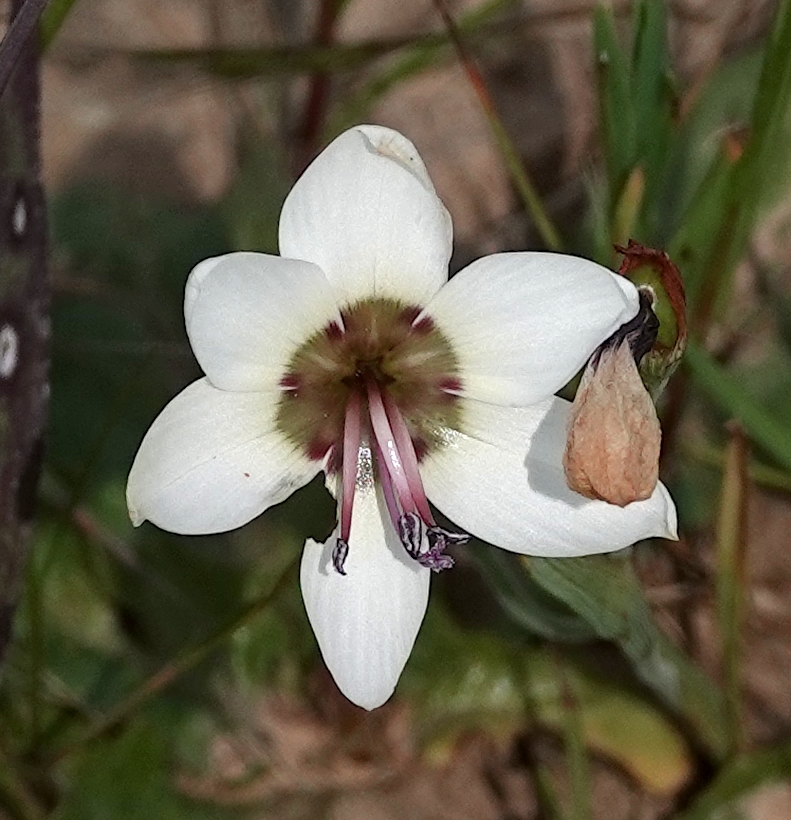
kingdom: Plantae
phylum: Tracheophyta
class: Liliopsida
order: Asparagales
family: Iridaceae
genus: Geissorhiza
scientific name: Geissorhiza tulbaghensis
